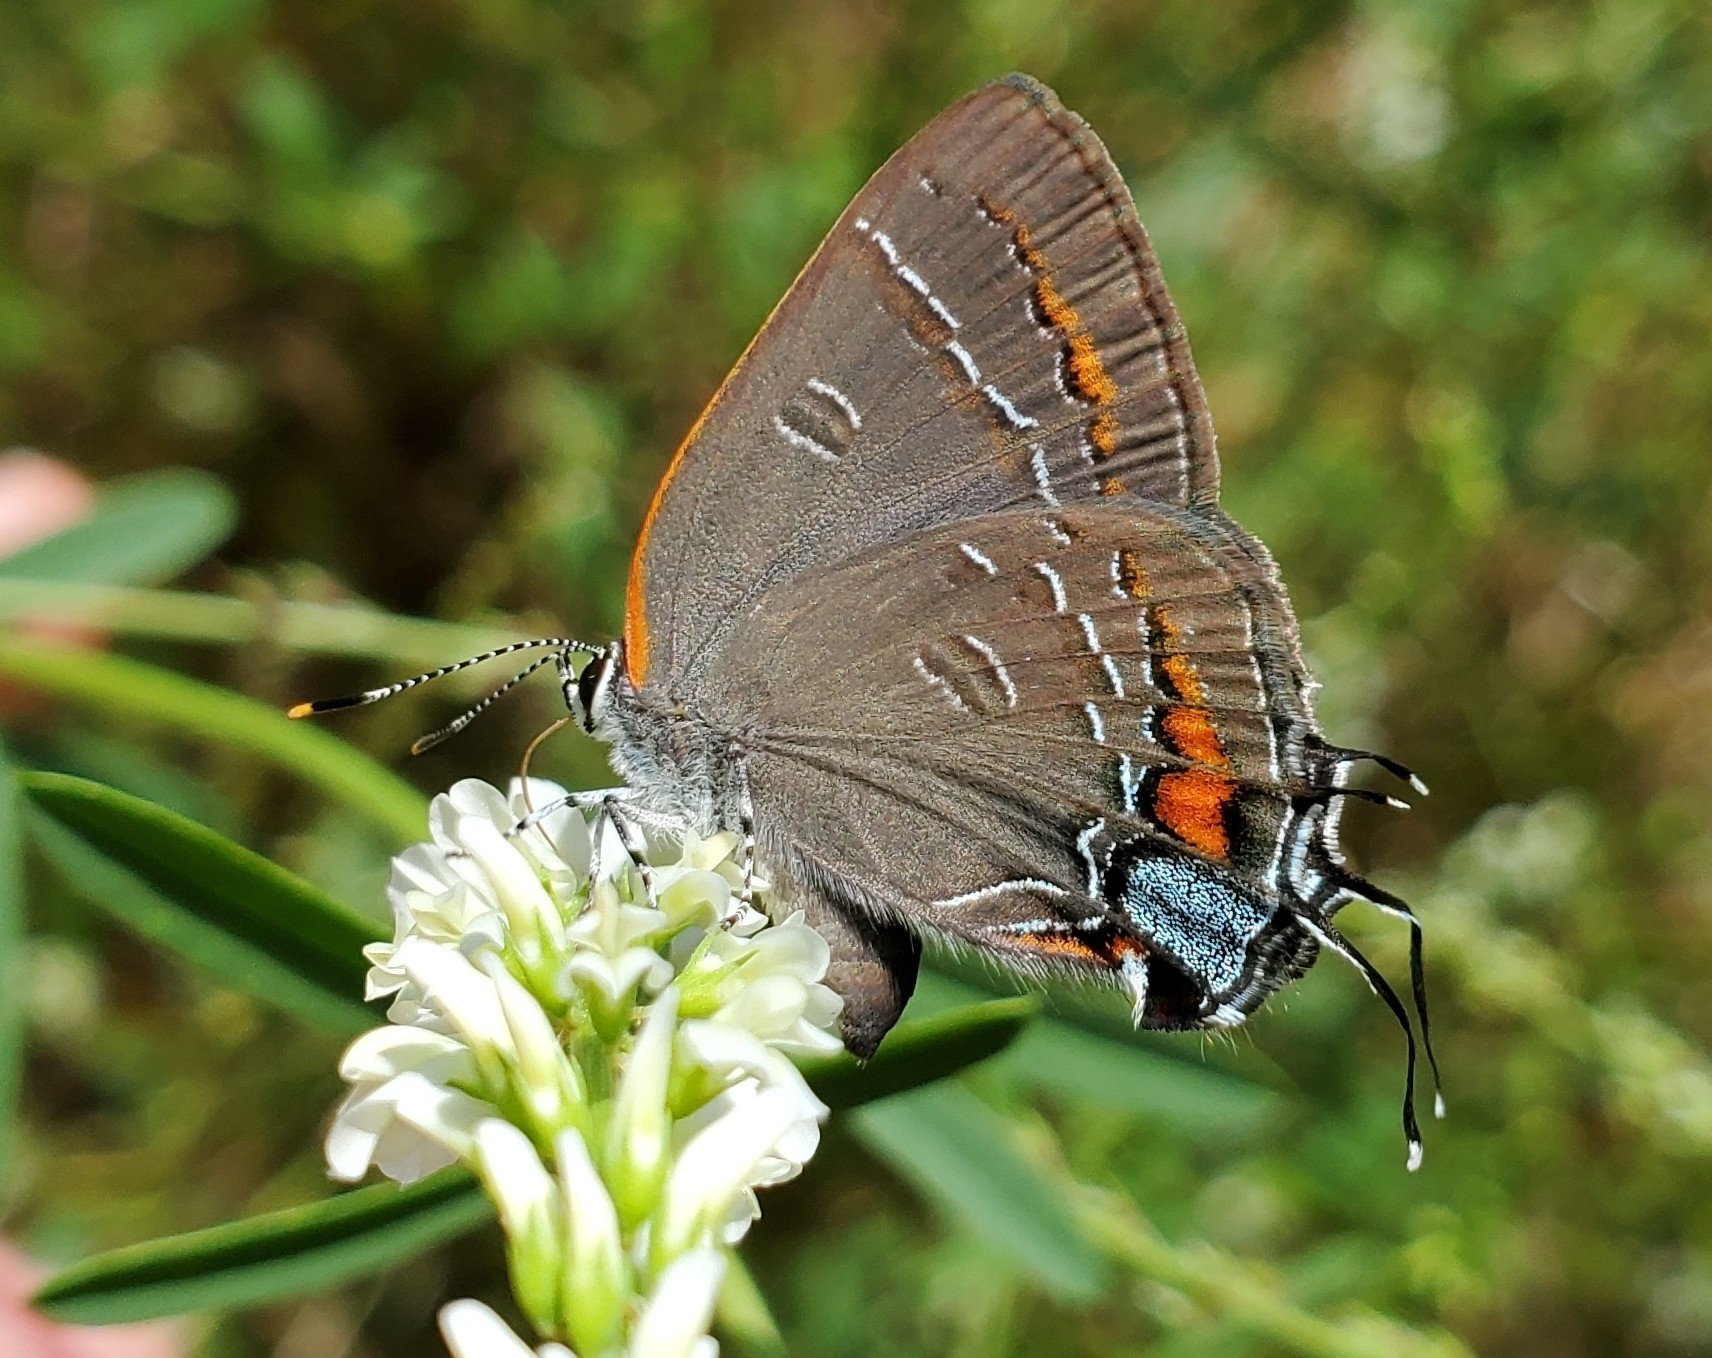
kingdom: Animalia
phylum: Arthropoda
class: Insecta
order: Lepidoptera
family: Lycaenidae
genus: Satyrium
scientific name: Satyrium calanus
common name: Banded hairstreak
